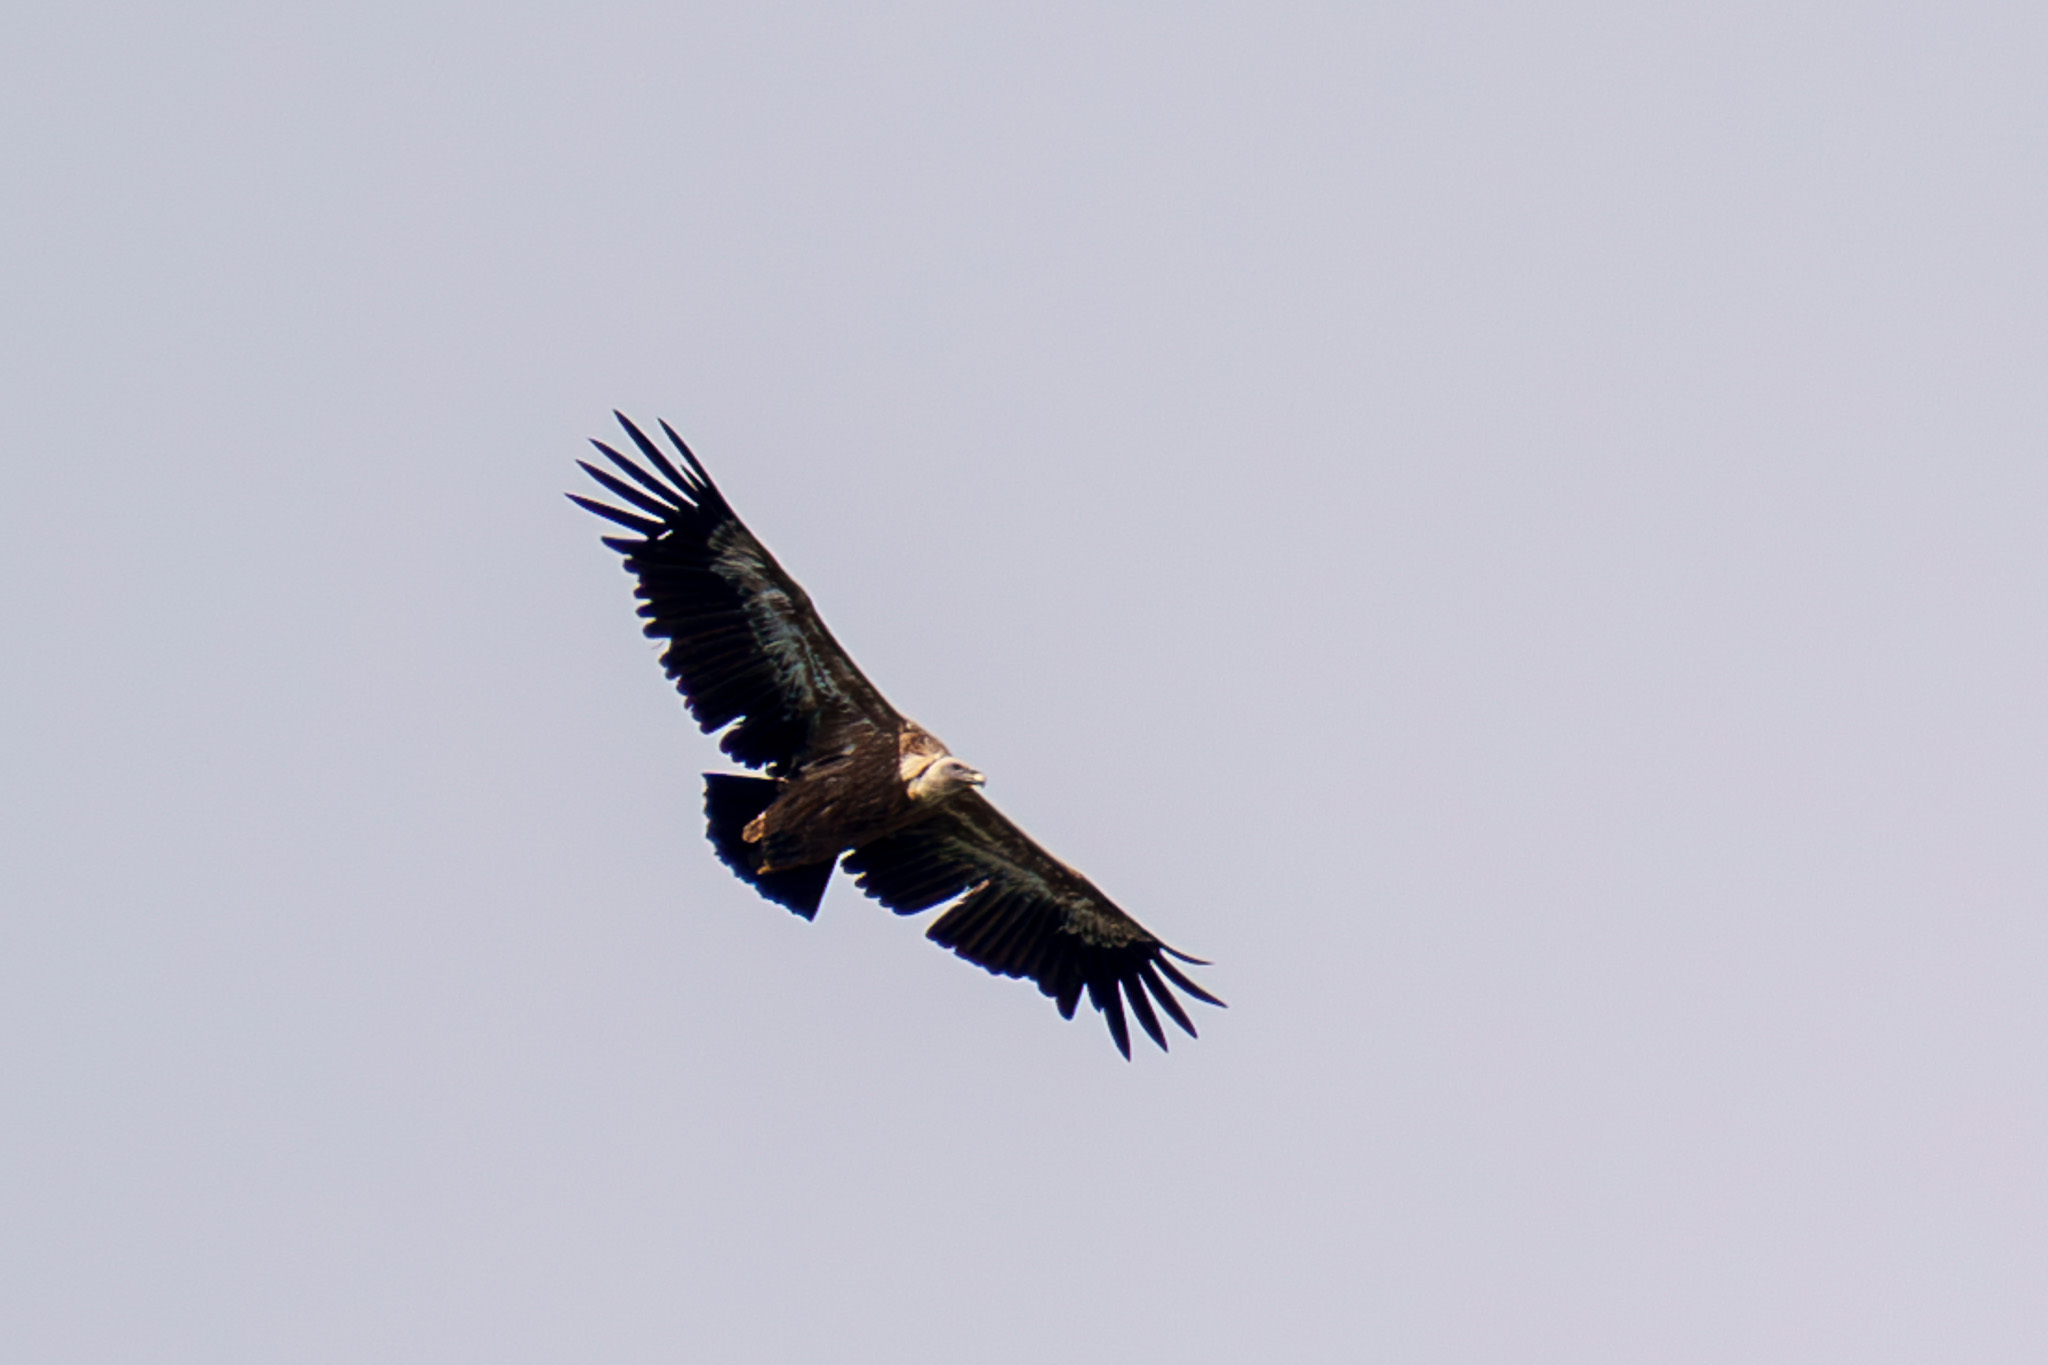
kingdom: Animalia
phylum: Chordata
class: Aves
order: Accipitriformes
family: Accipitridae
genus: Gyps
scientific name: Gyps fulvus
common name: Griffon vulture
